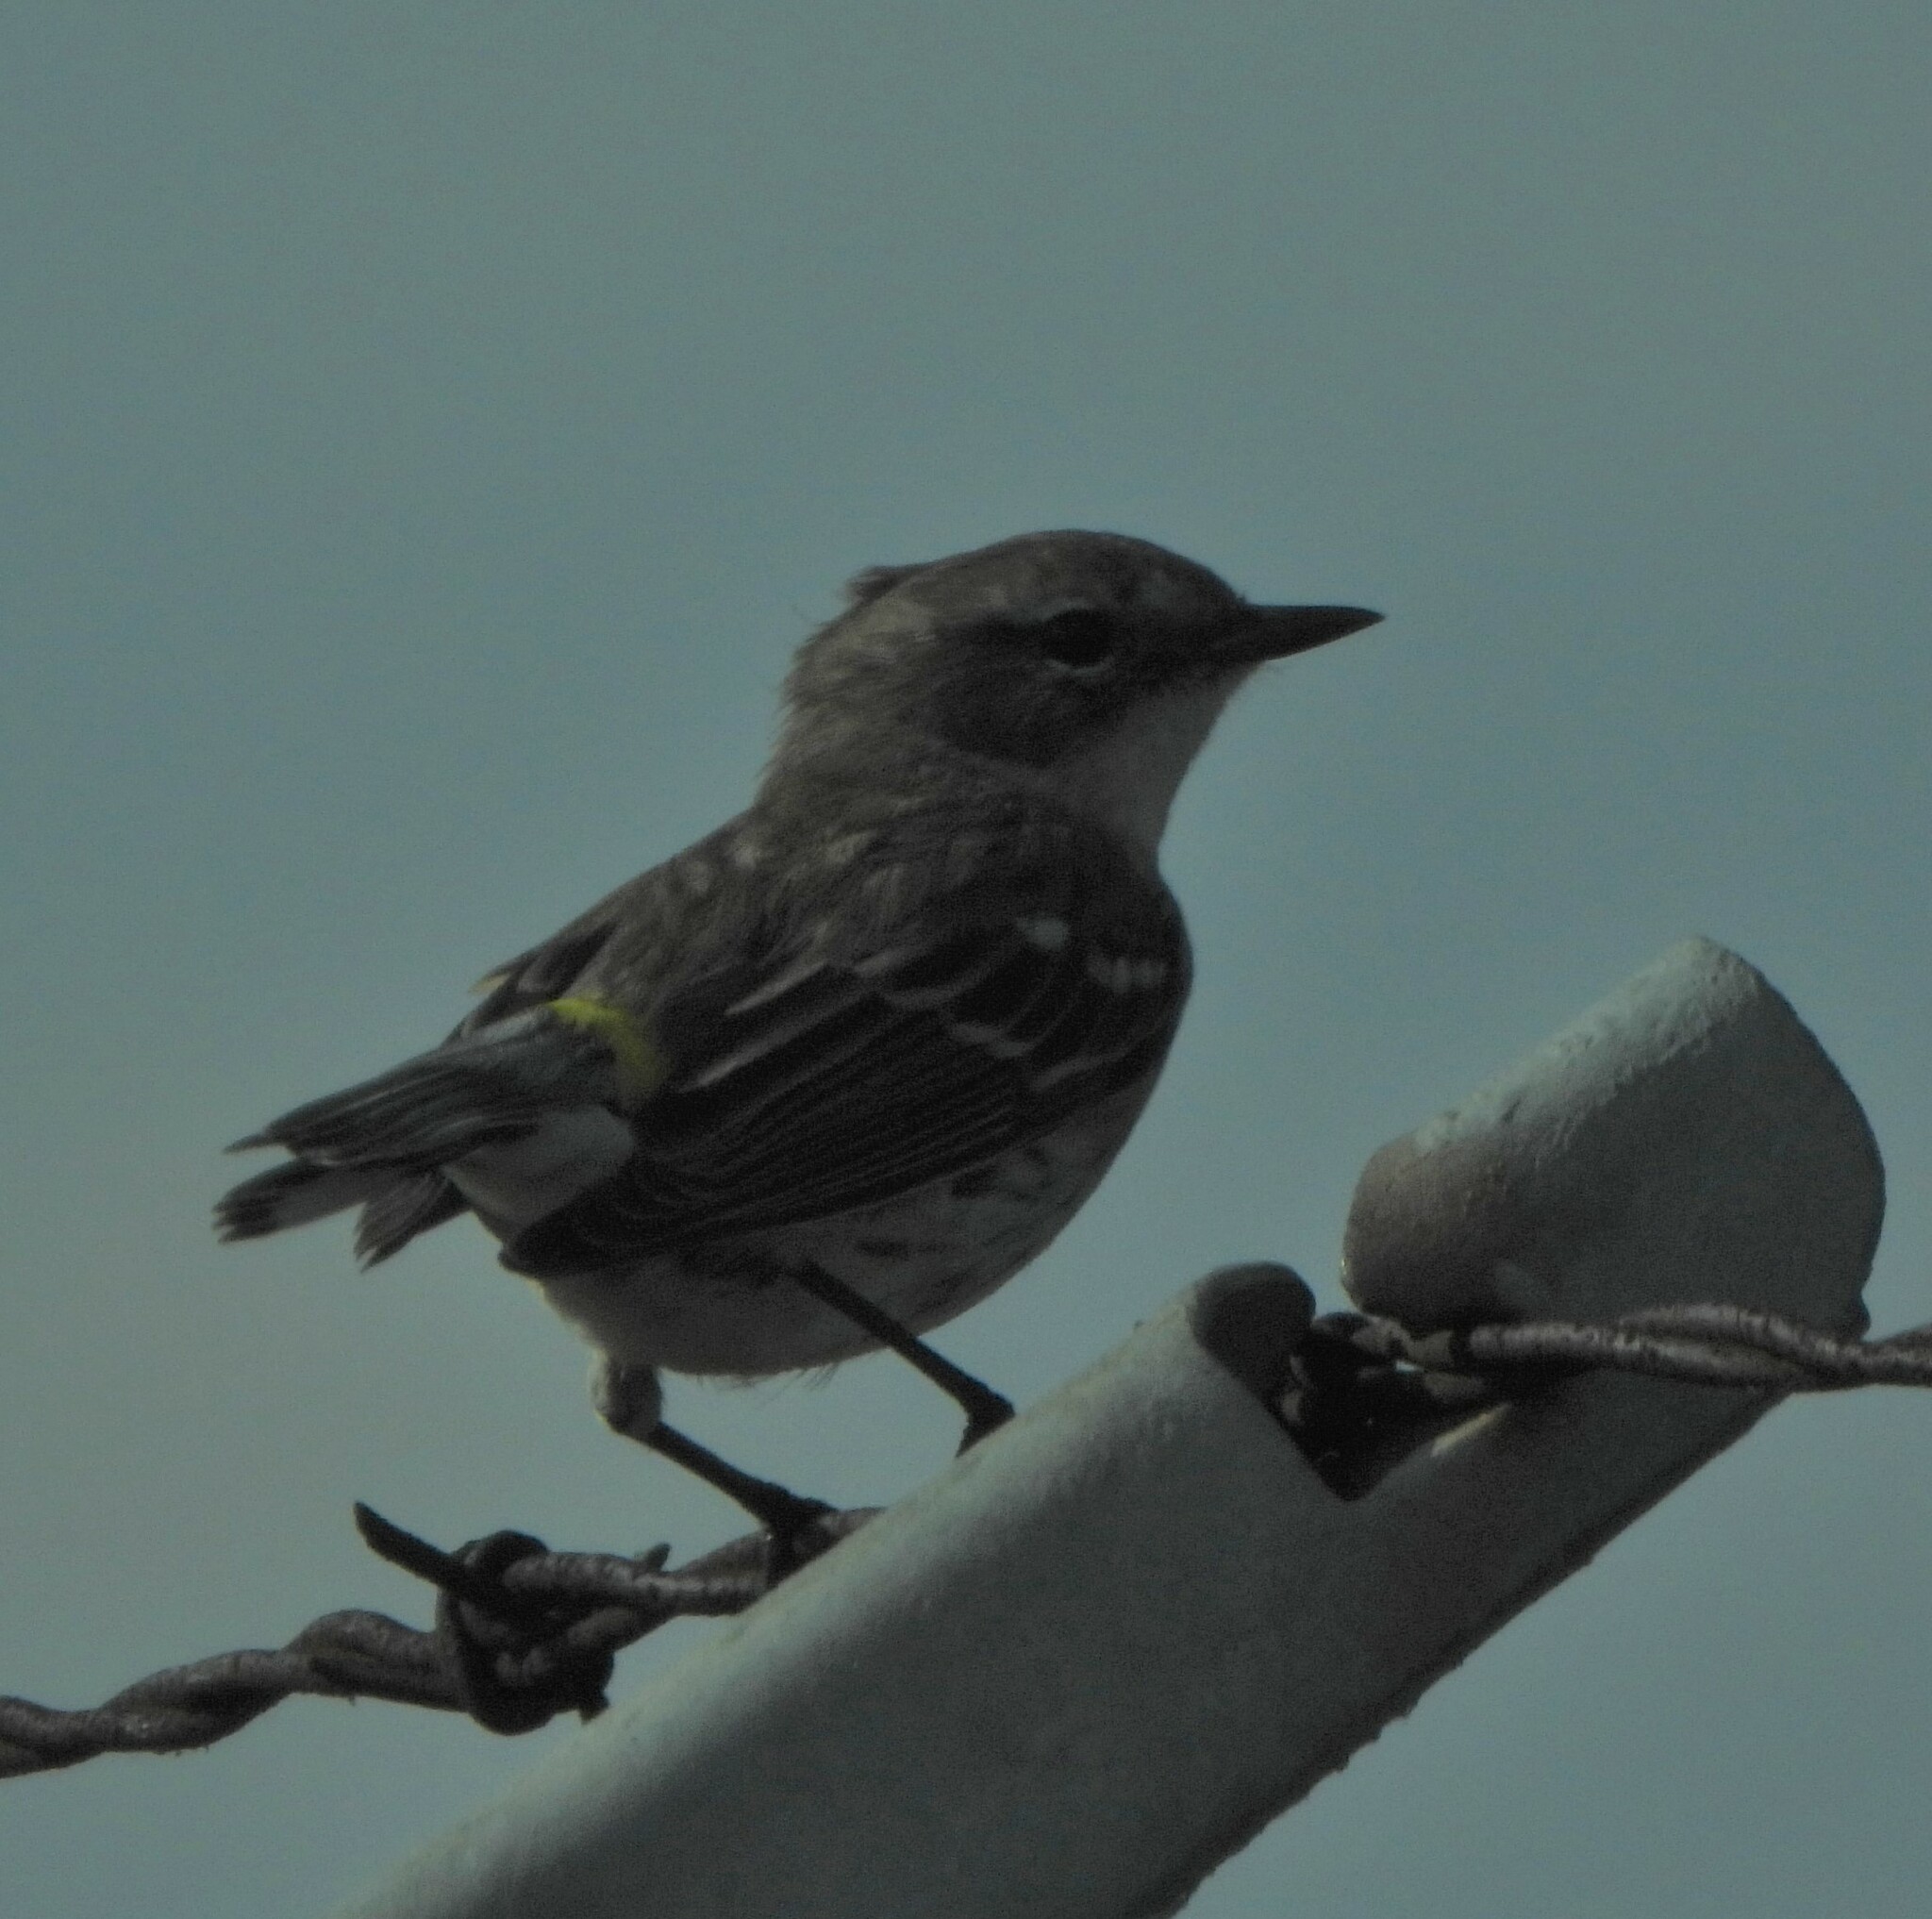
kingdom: Animalia
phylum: Chordata
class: Aves
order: Passeriformes
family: Parulidae
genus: Setophaga
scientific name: Setophaga coronata
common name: Myrtle warbler
